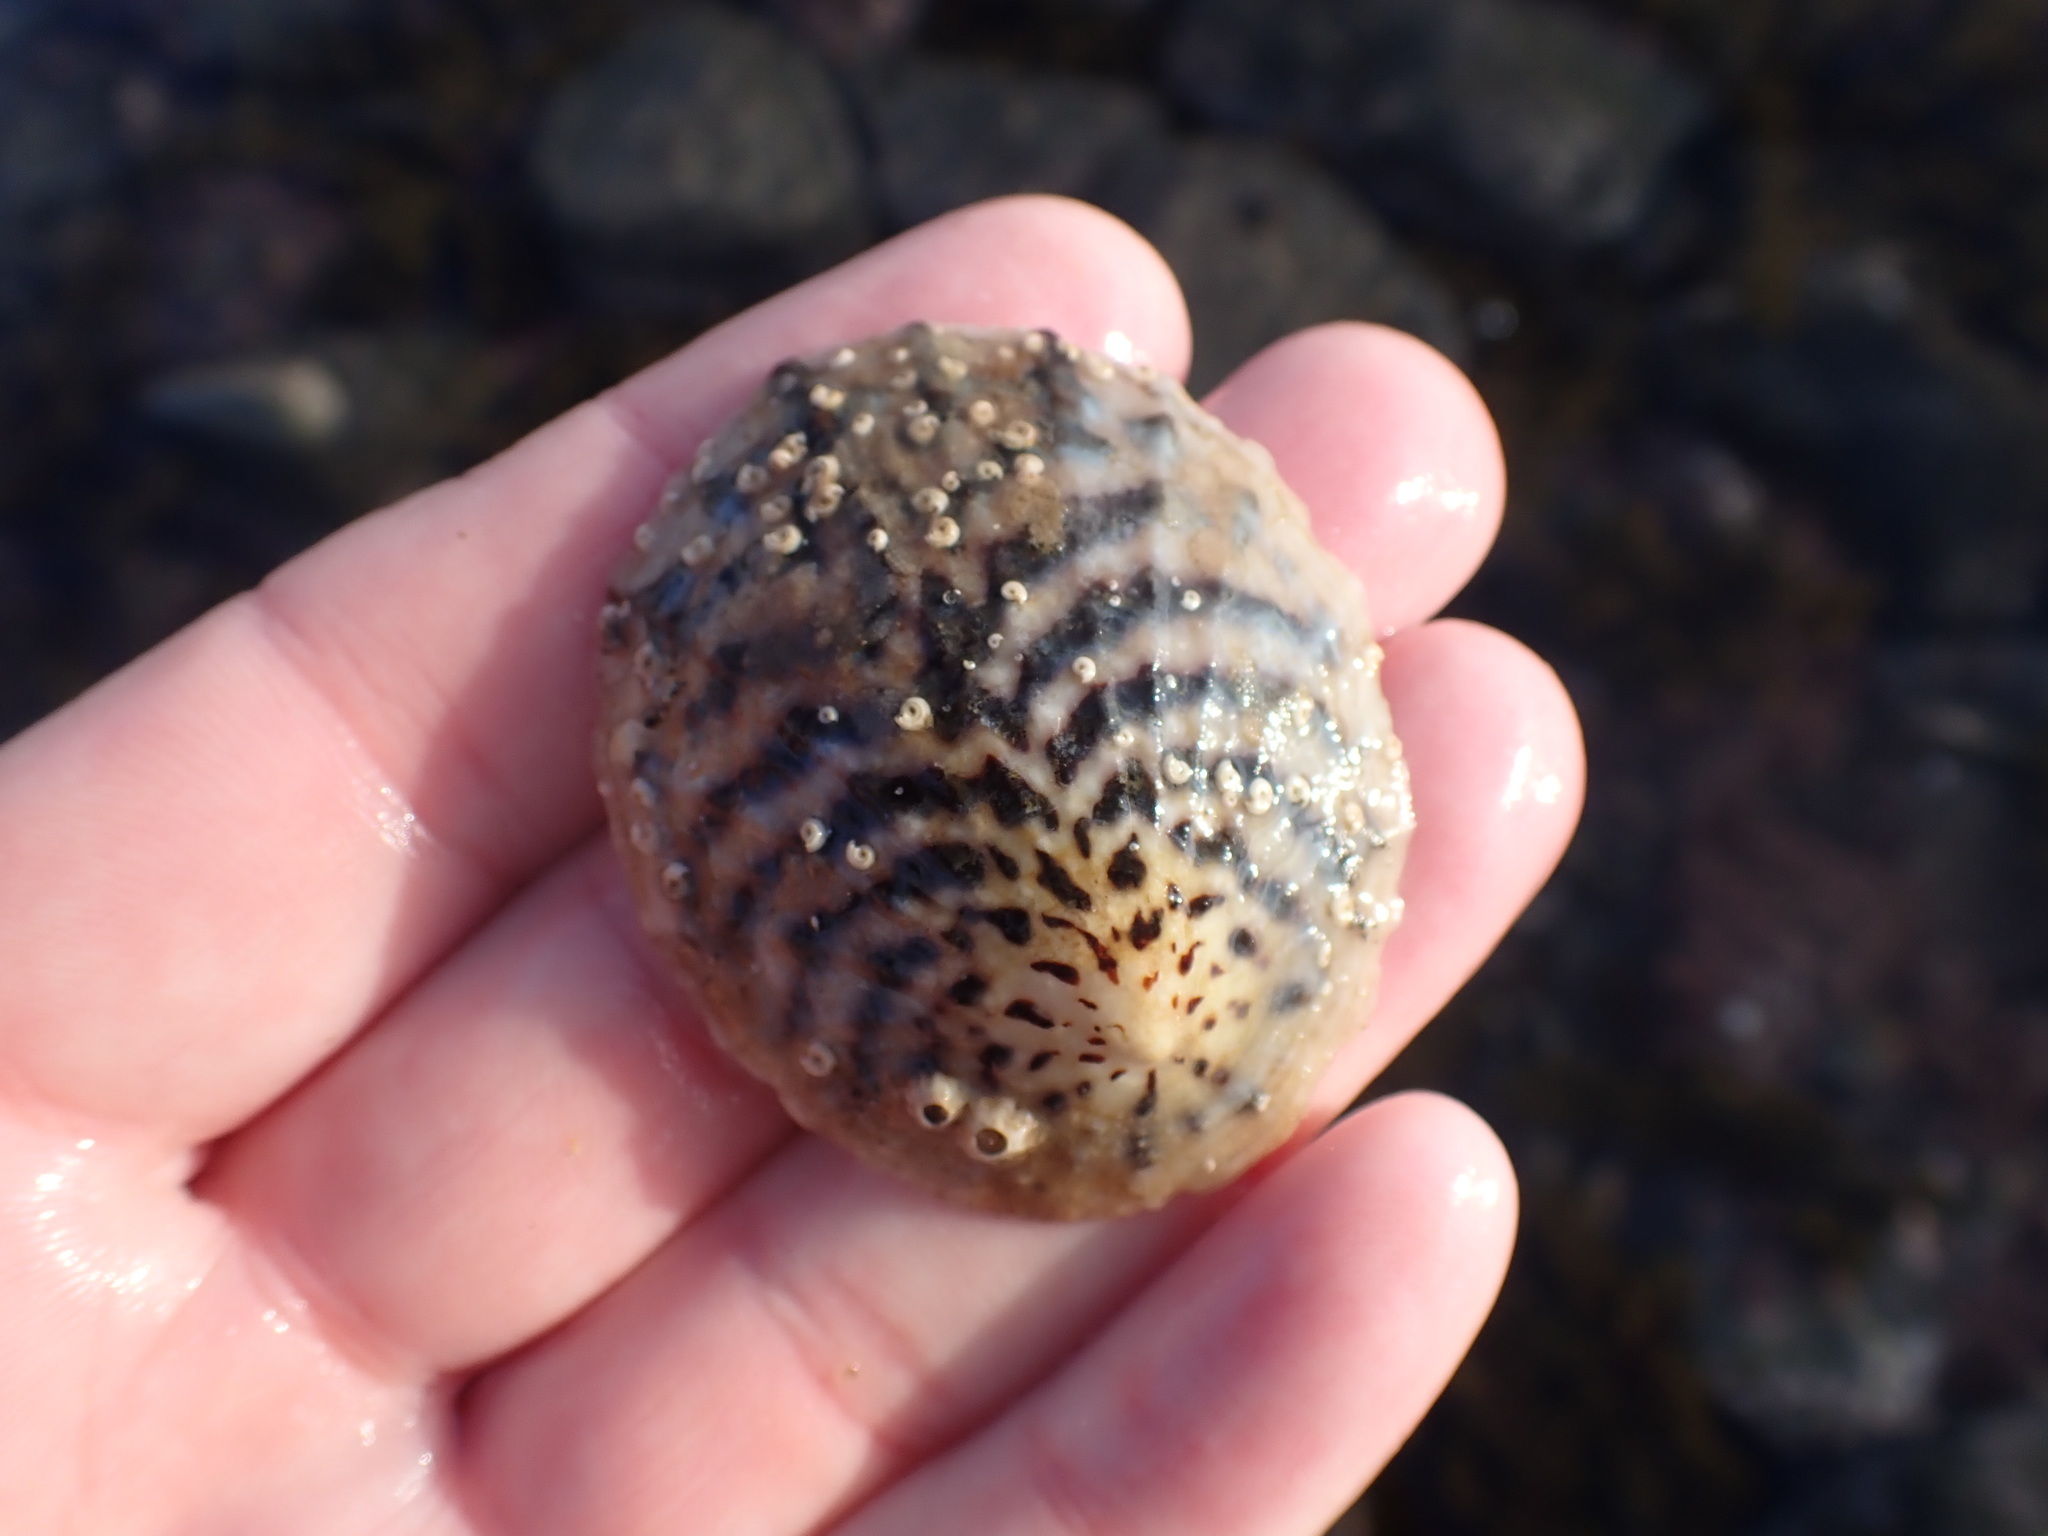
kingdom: Animalia
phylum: Mollusca
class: Gastropoda
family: Nacellidae
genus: Cellana
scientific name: Cellana radians
